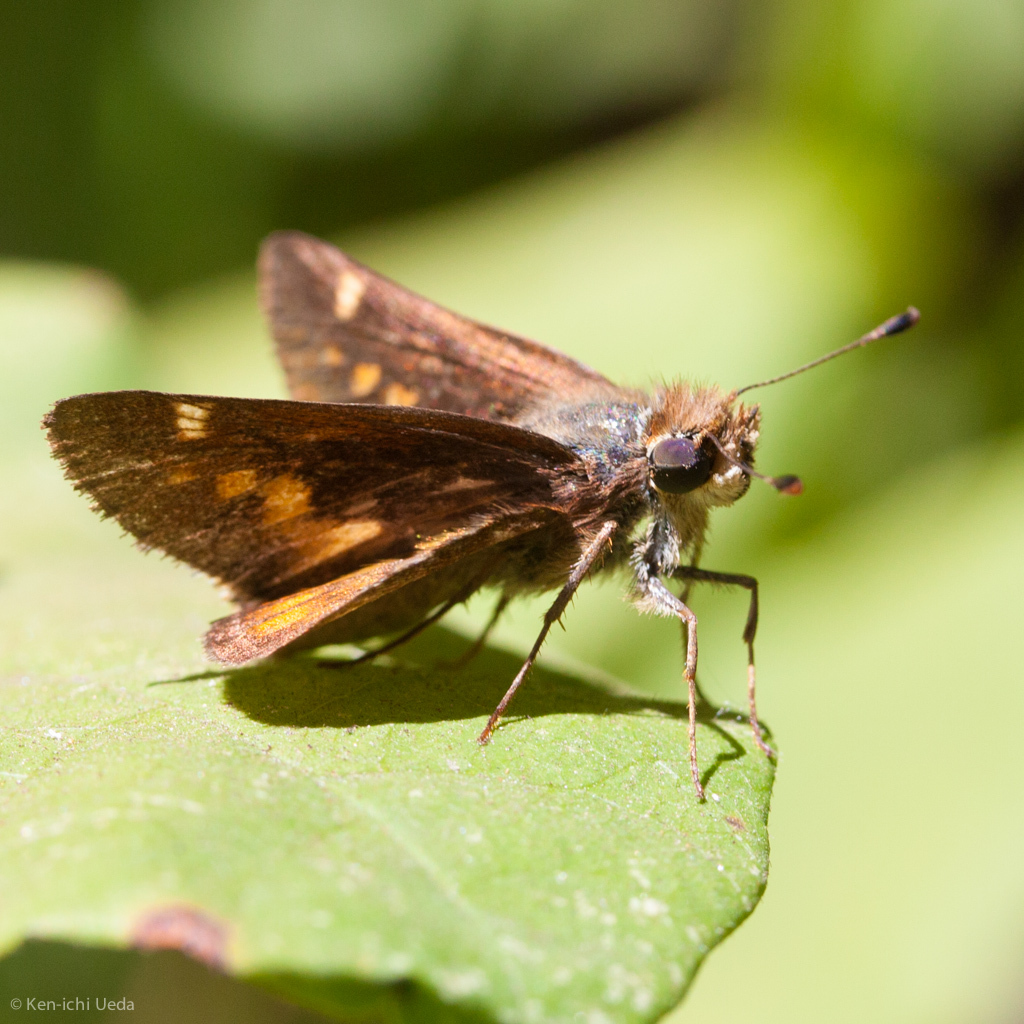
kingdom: Animalia
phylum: Arthropoda
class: Insecta
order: Lepidoptera
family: Hesperiidae
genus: Lon
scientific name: Lon melane
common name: Umber skipper
